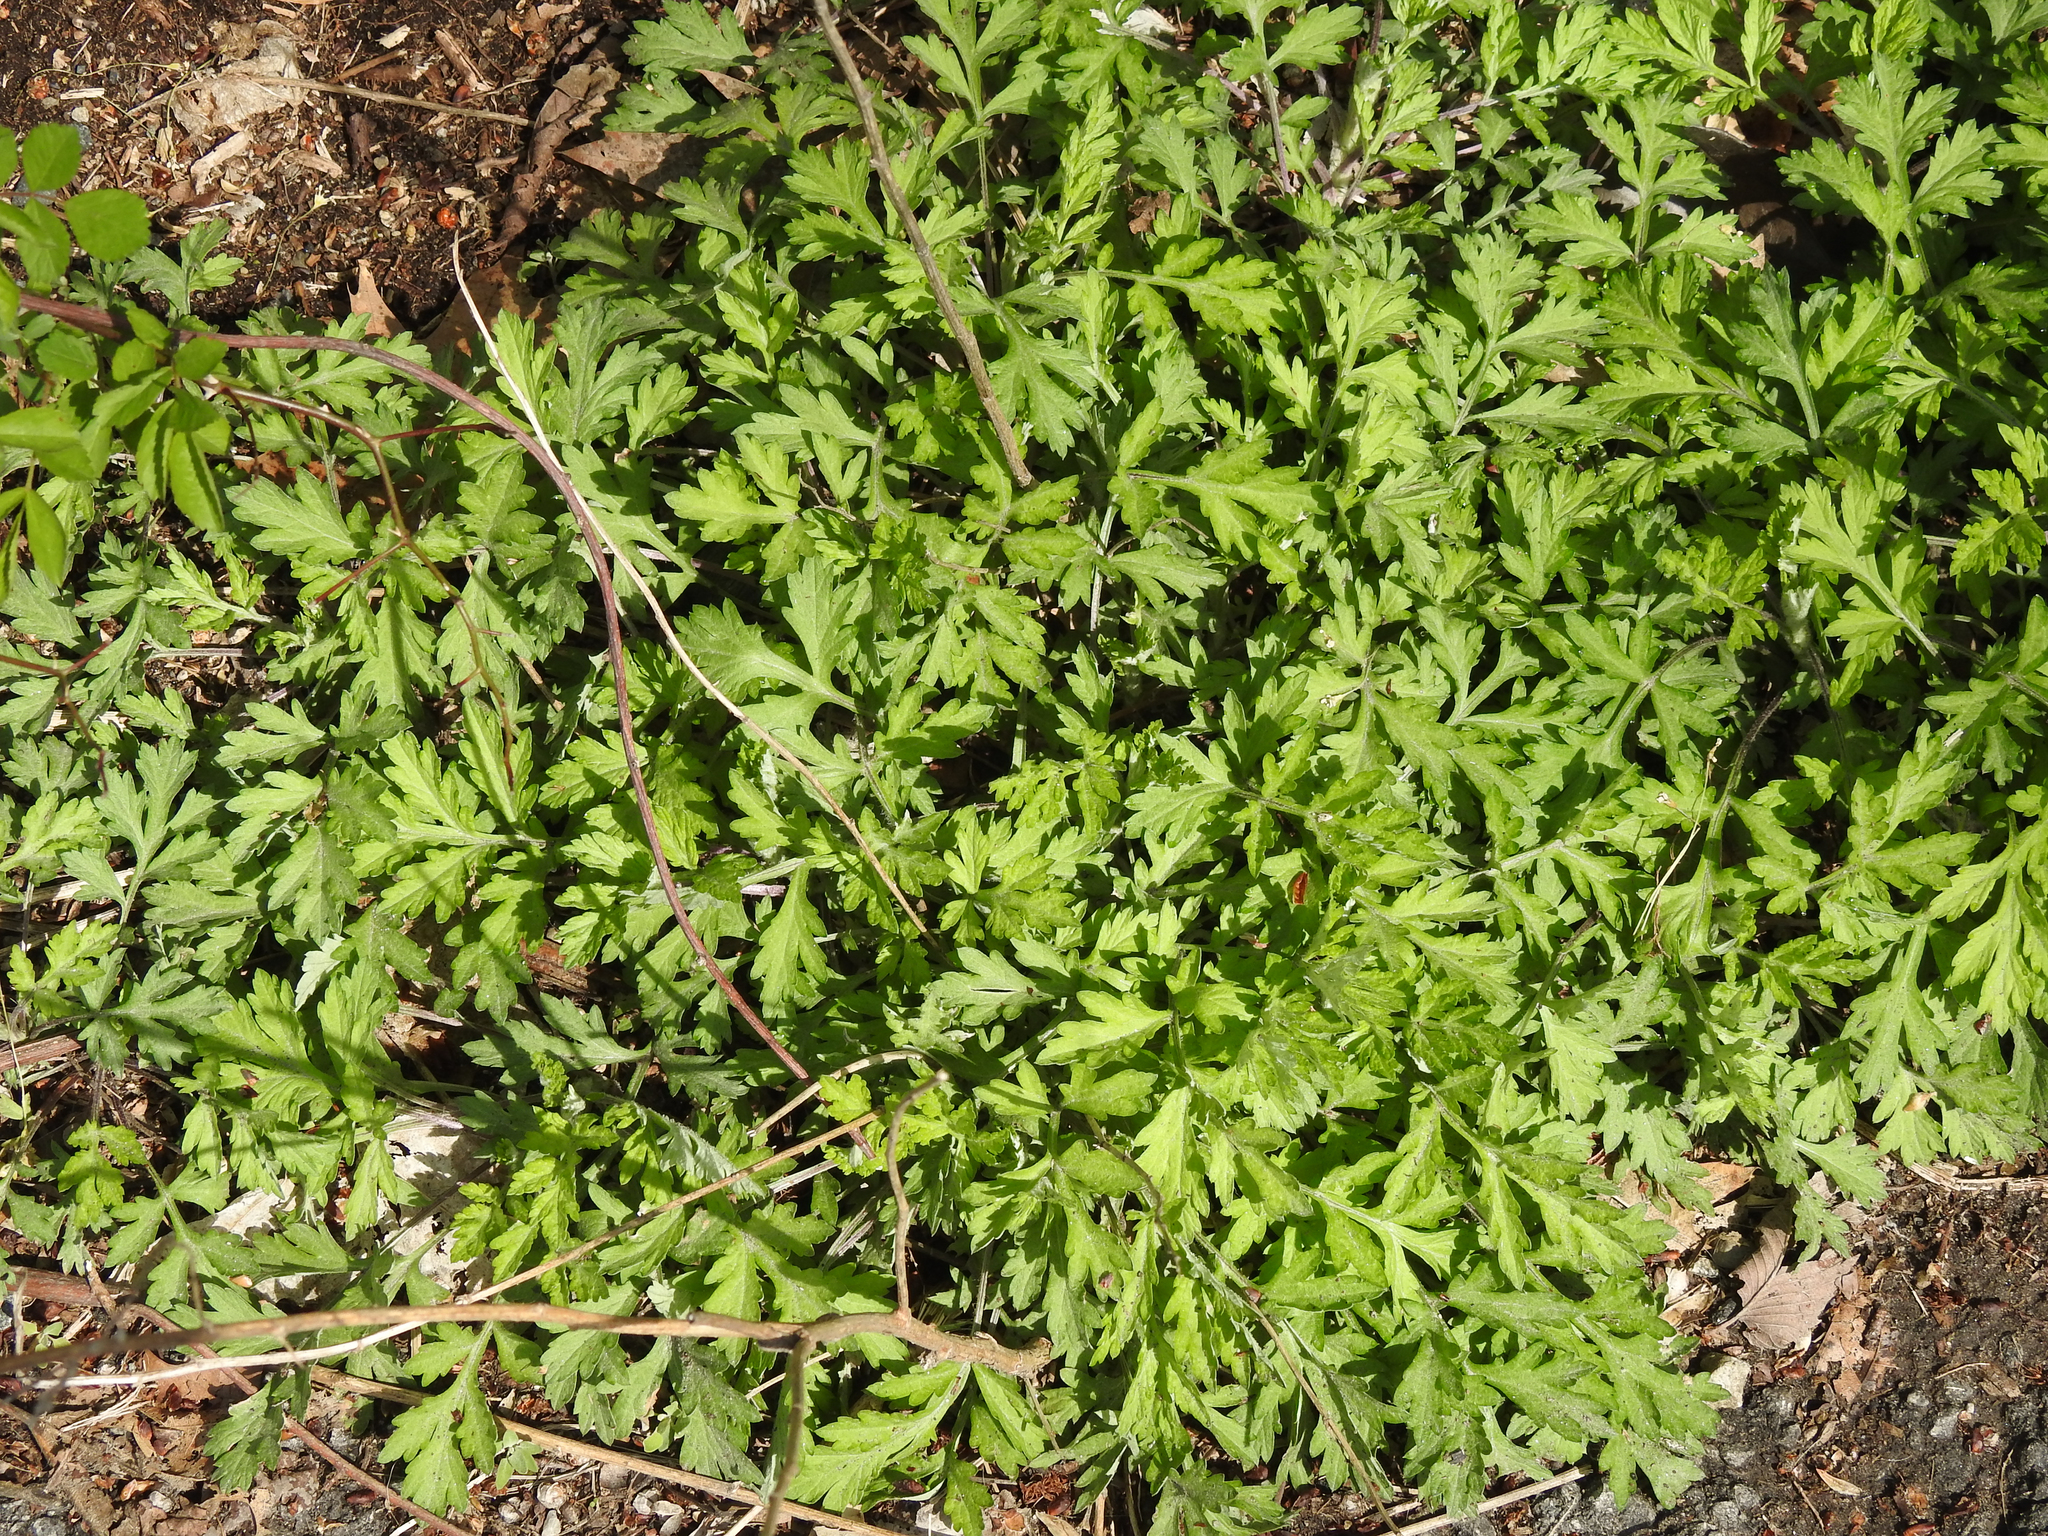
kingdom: Plantae
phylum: Tracheophyta
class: Magnoliopsida
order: Asterales
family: Asteraceae
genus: Artemisia
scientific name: Artemisia vulgaris
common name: Mugwort
